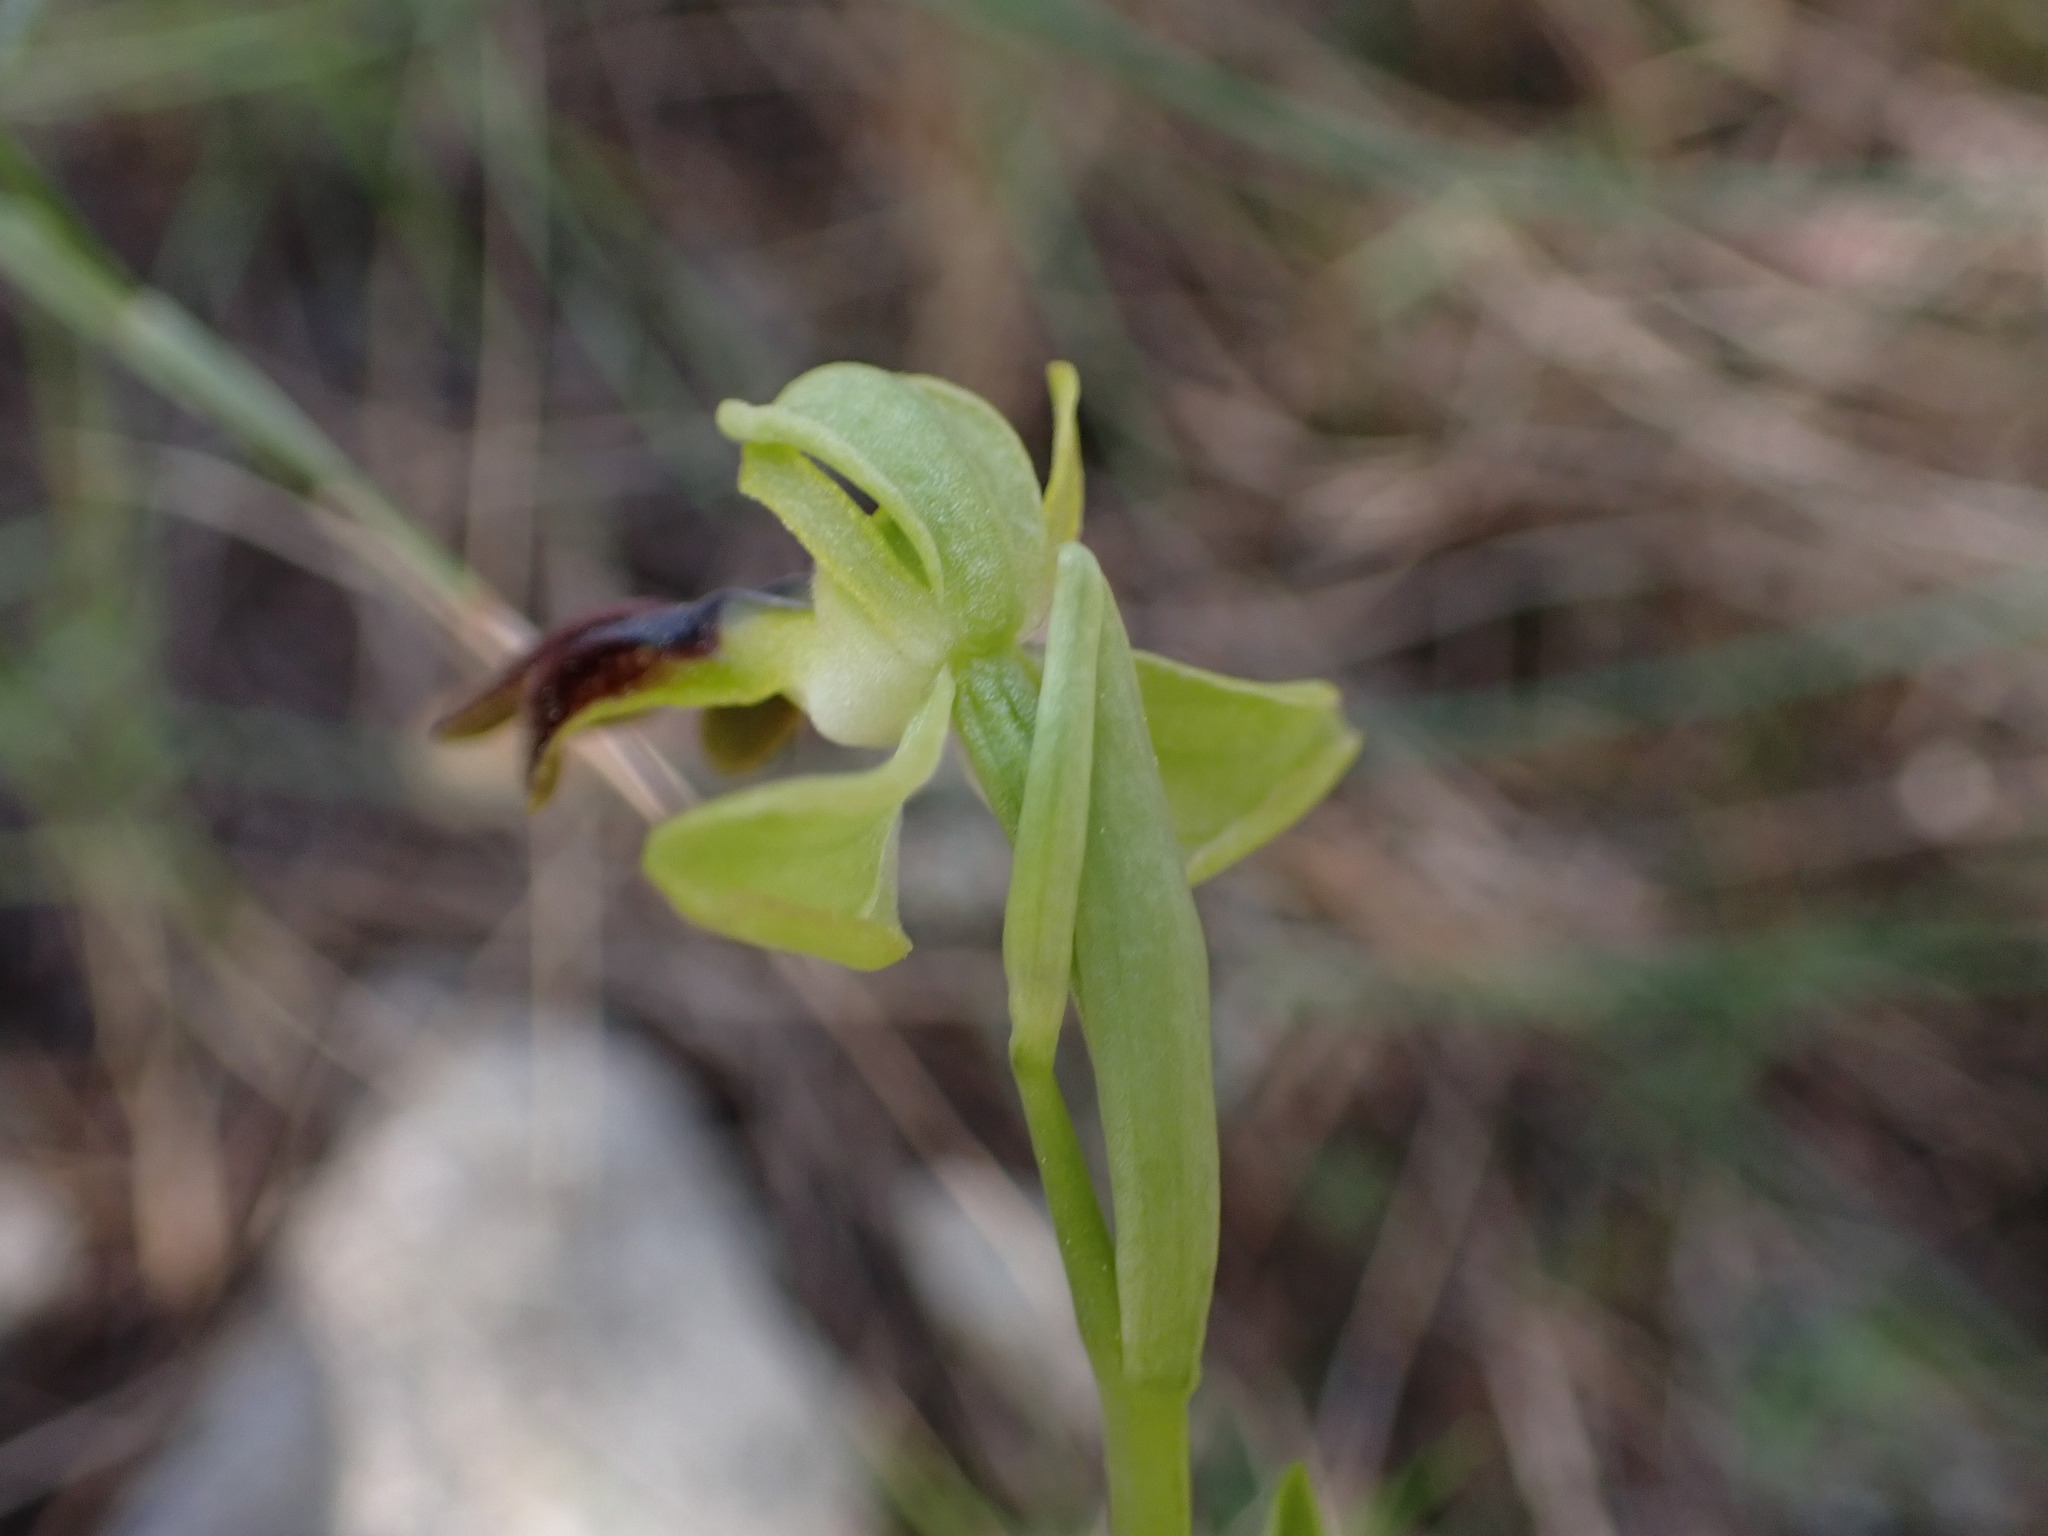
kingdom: Plantae
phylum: Tracheophyta
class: Liliopsida
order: Asparagales
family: Orchidaceae
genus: Ophrys
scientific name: Ophrys fusca
